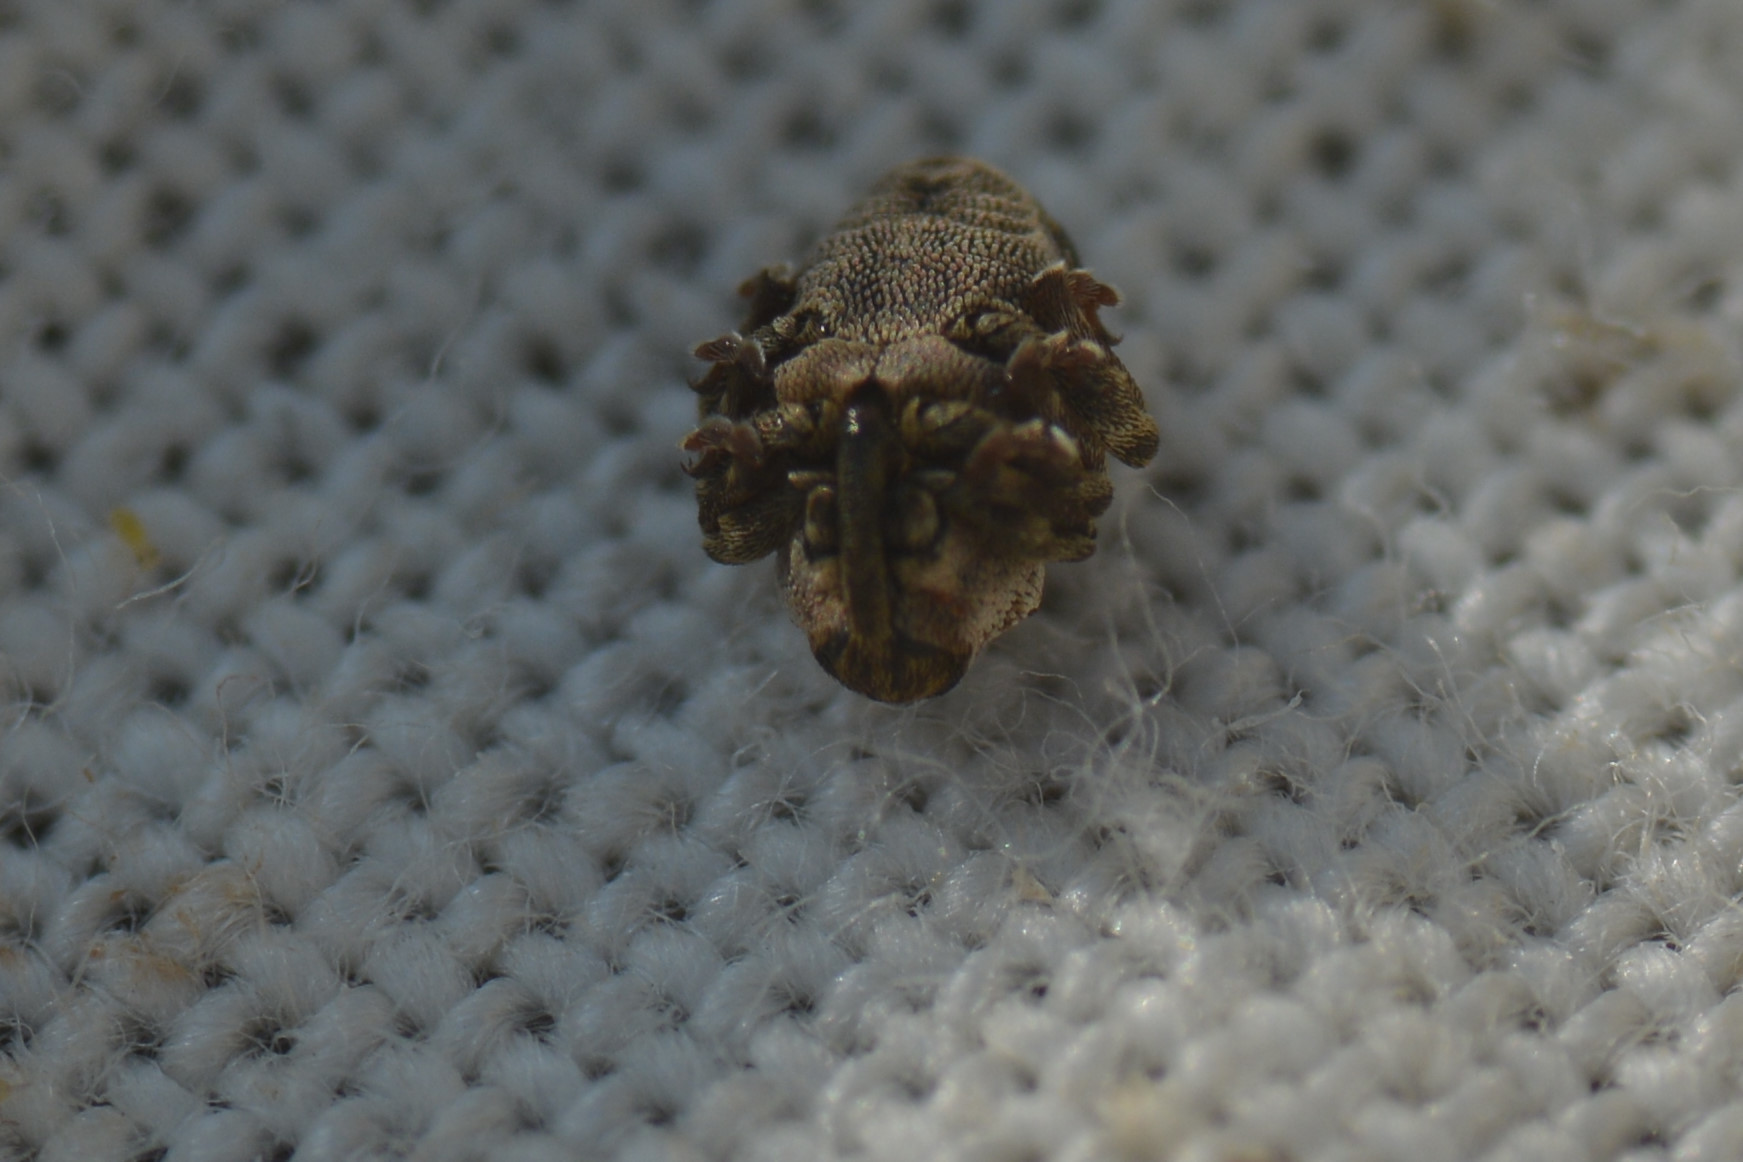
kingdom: Animalia
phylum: Arthropoda
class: Insecta
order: Coleoptera
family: Curculionidae
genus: Nedyus
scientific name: Nedyus quadrimaculatus
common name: Small nettle weevil
